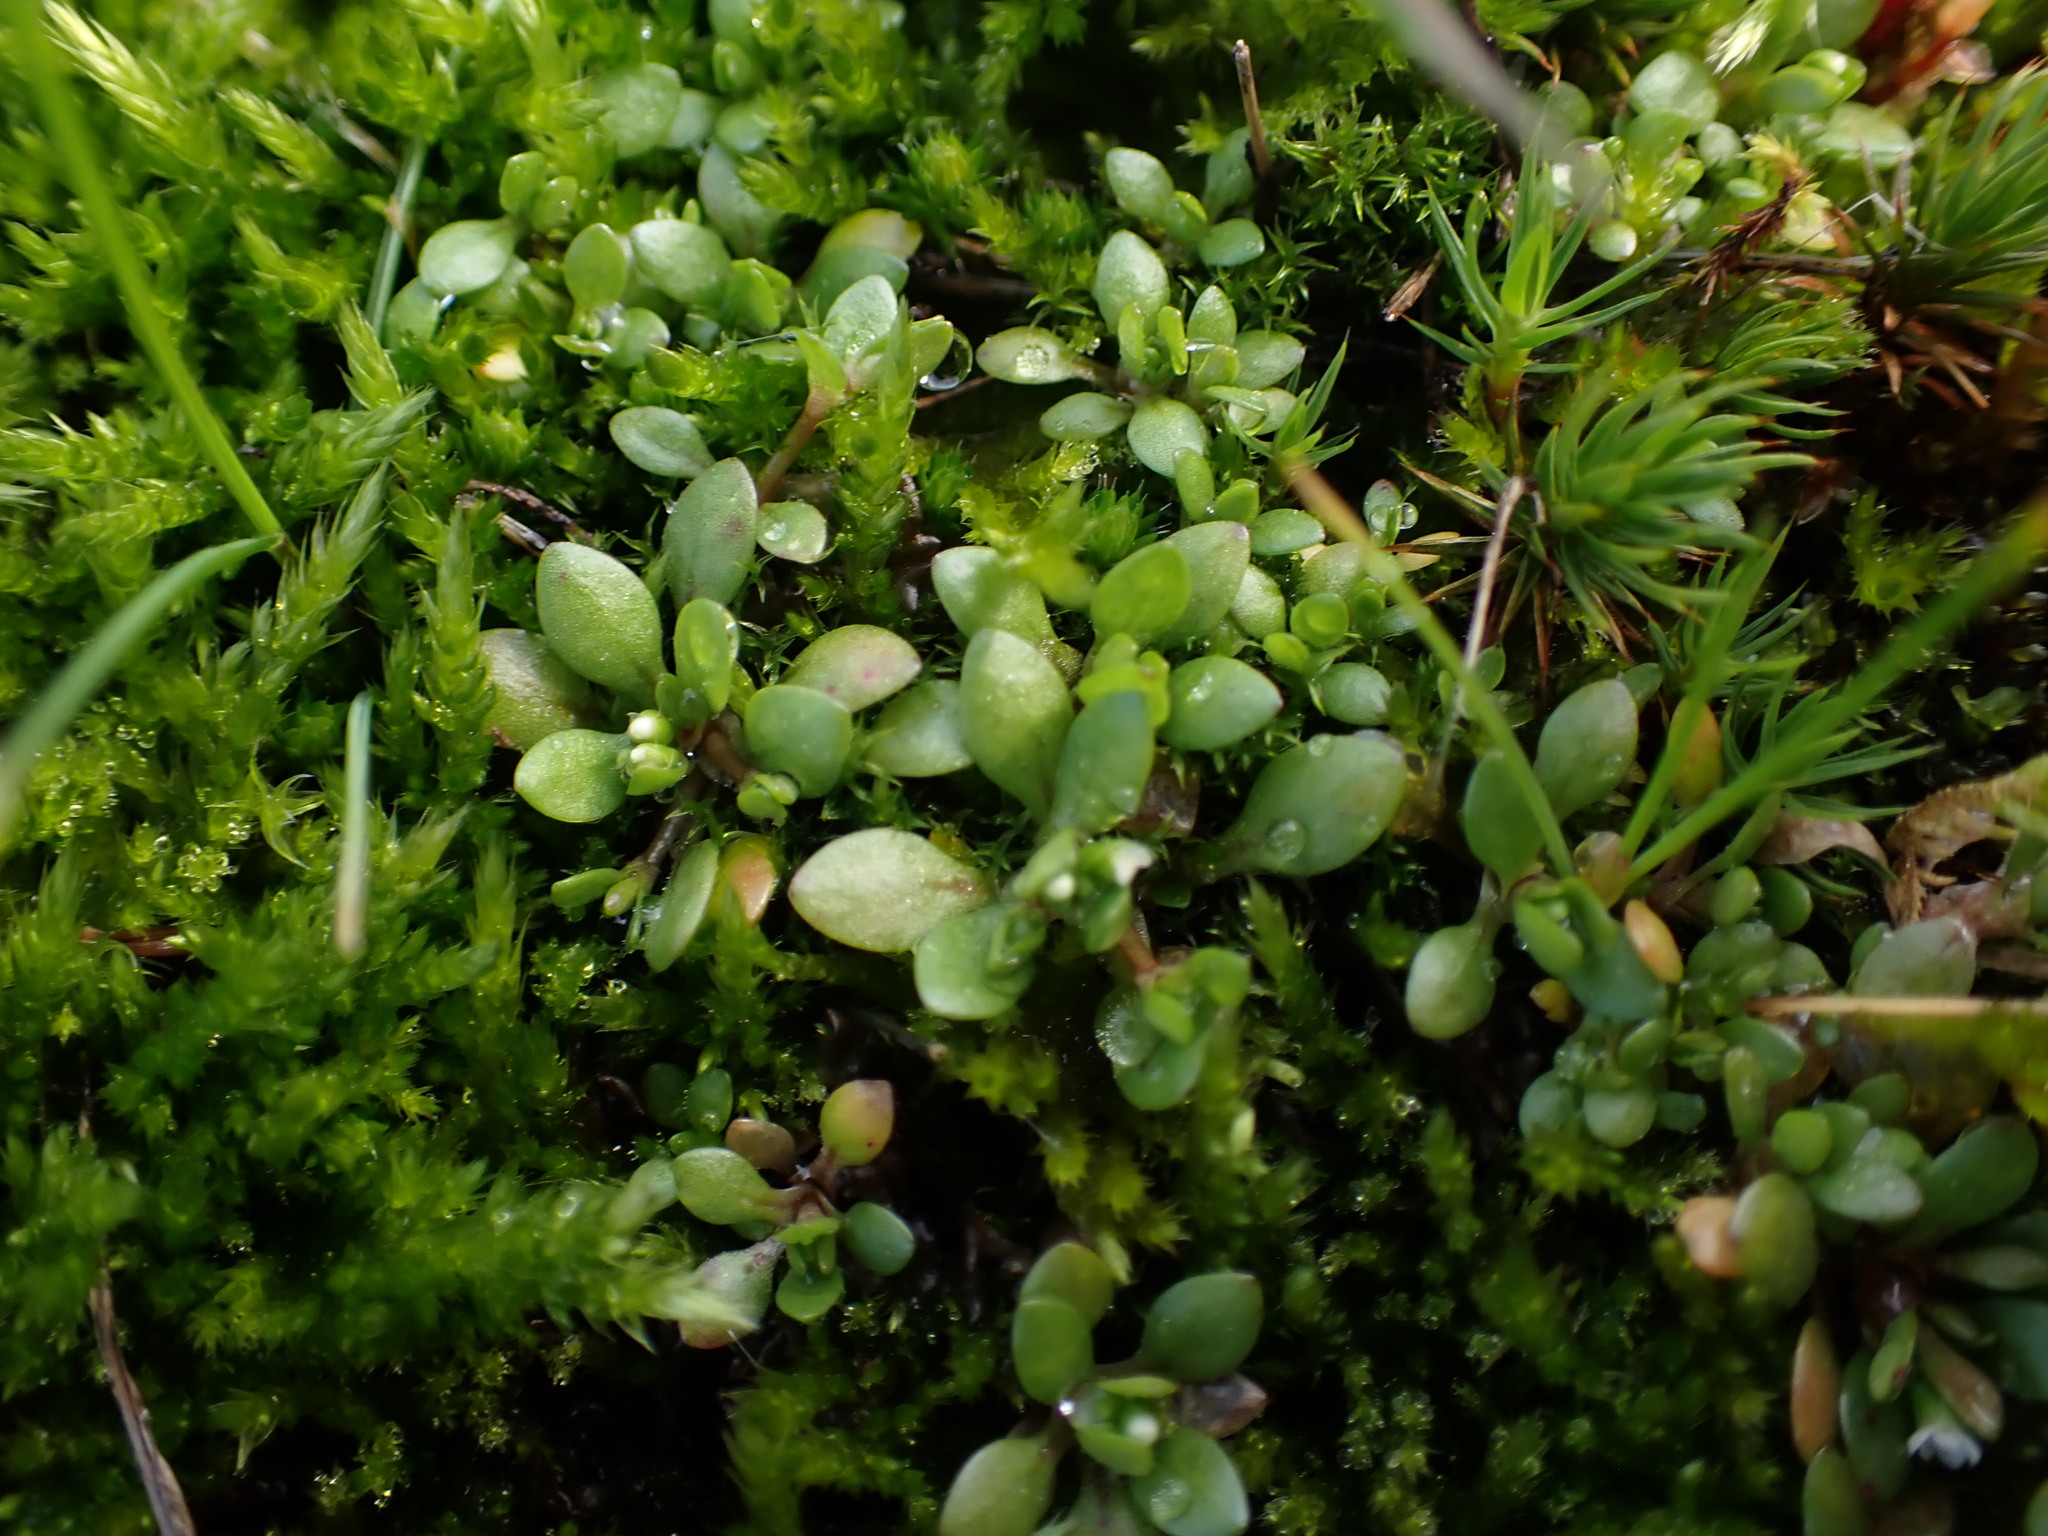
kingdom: Plantae
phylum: Tracheophyta
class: Magnoliopsida
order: Caryophyllales
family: Montiaceae
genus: Montia
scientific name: Montia fontana
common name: Blinks
